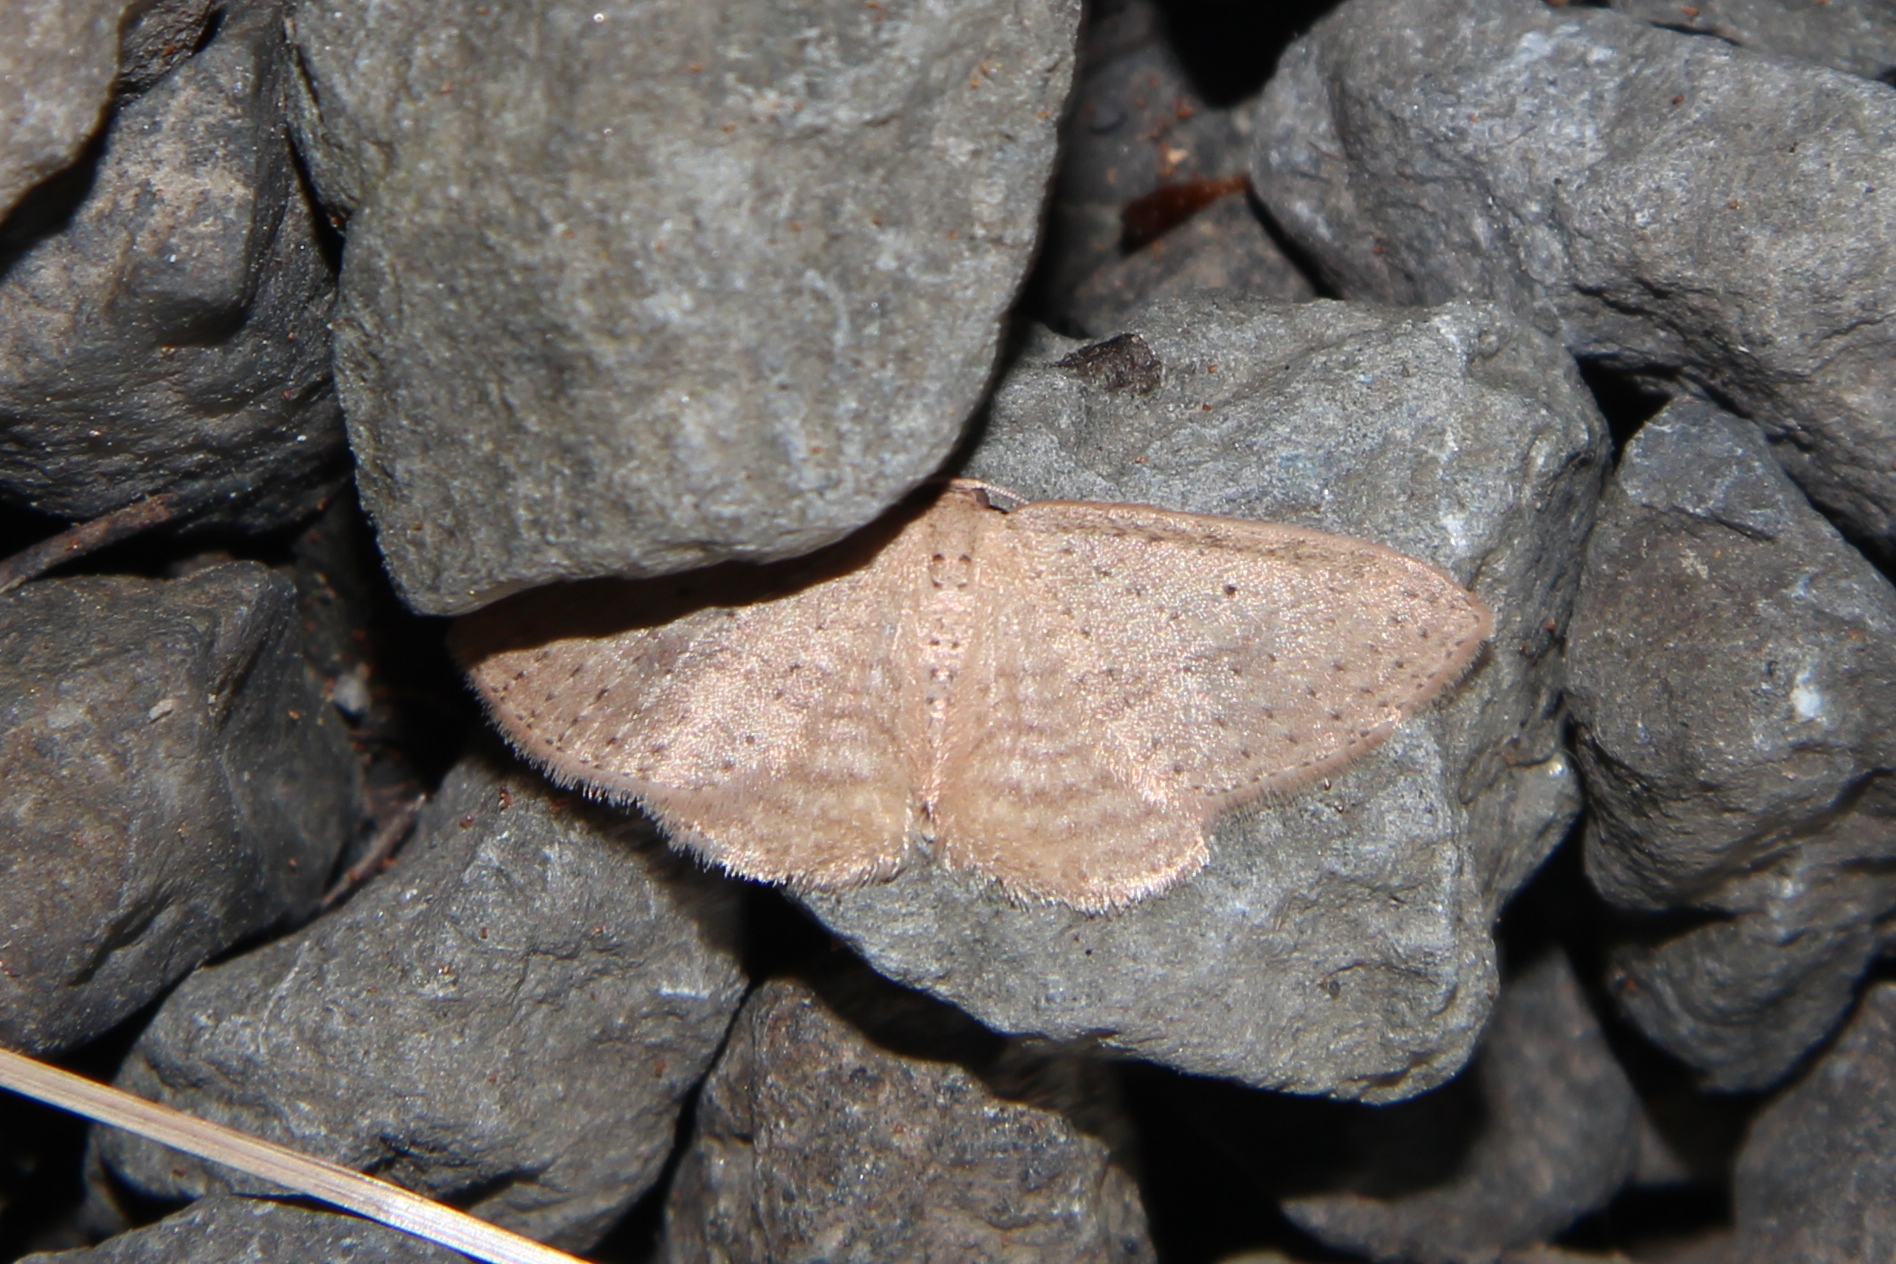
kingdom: Animalia
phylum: Arthropoda
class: Insecta
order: Lepidoptera
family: Geometridae
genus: Poecilasthena
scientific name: Poecilasthena schistaria
